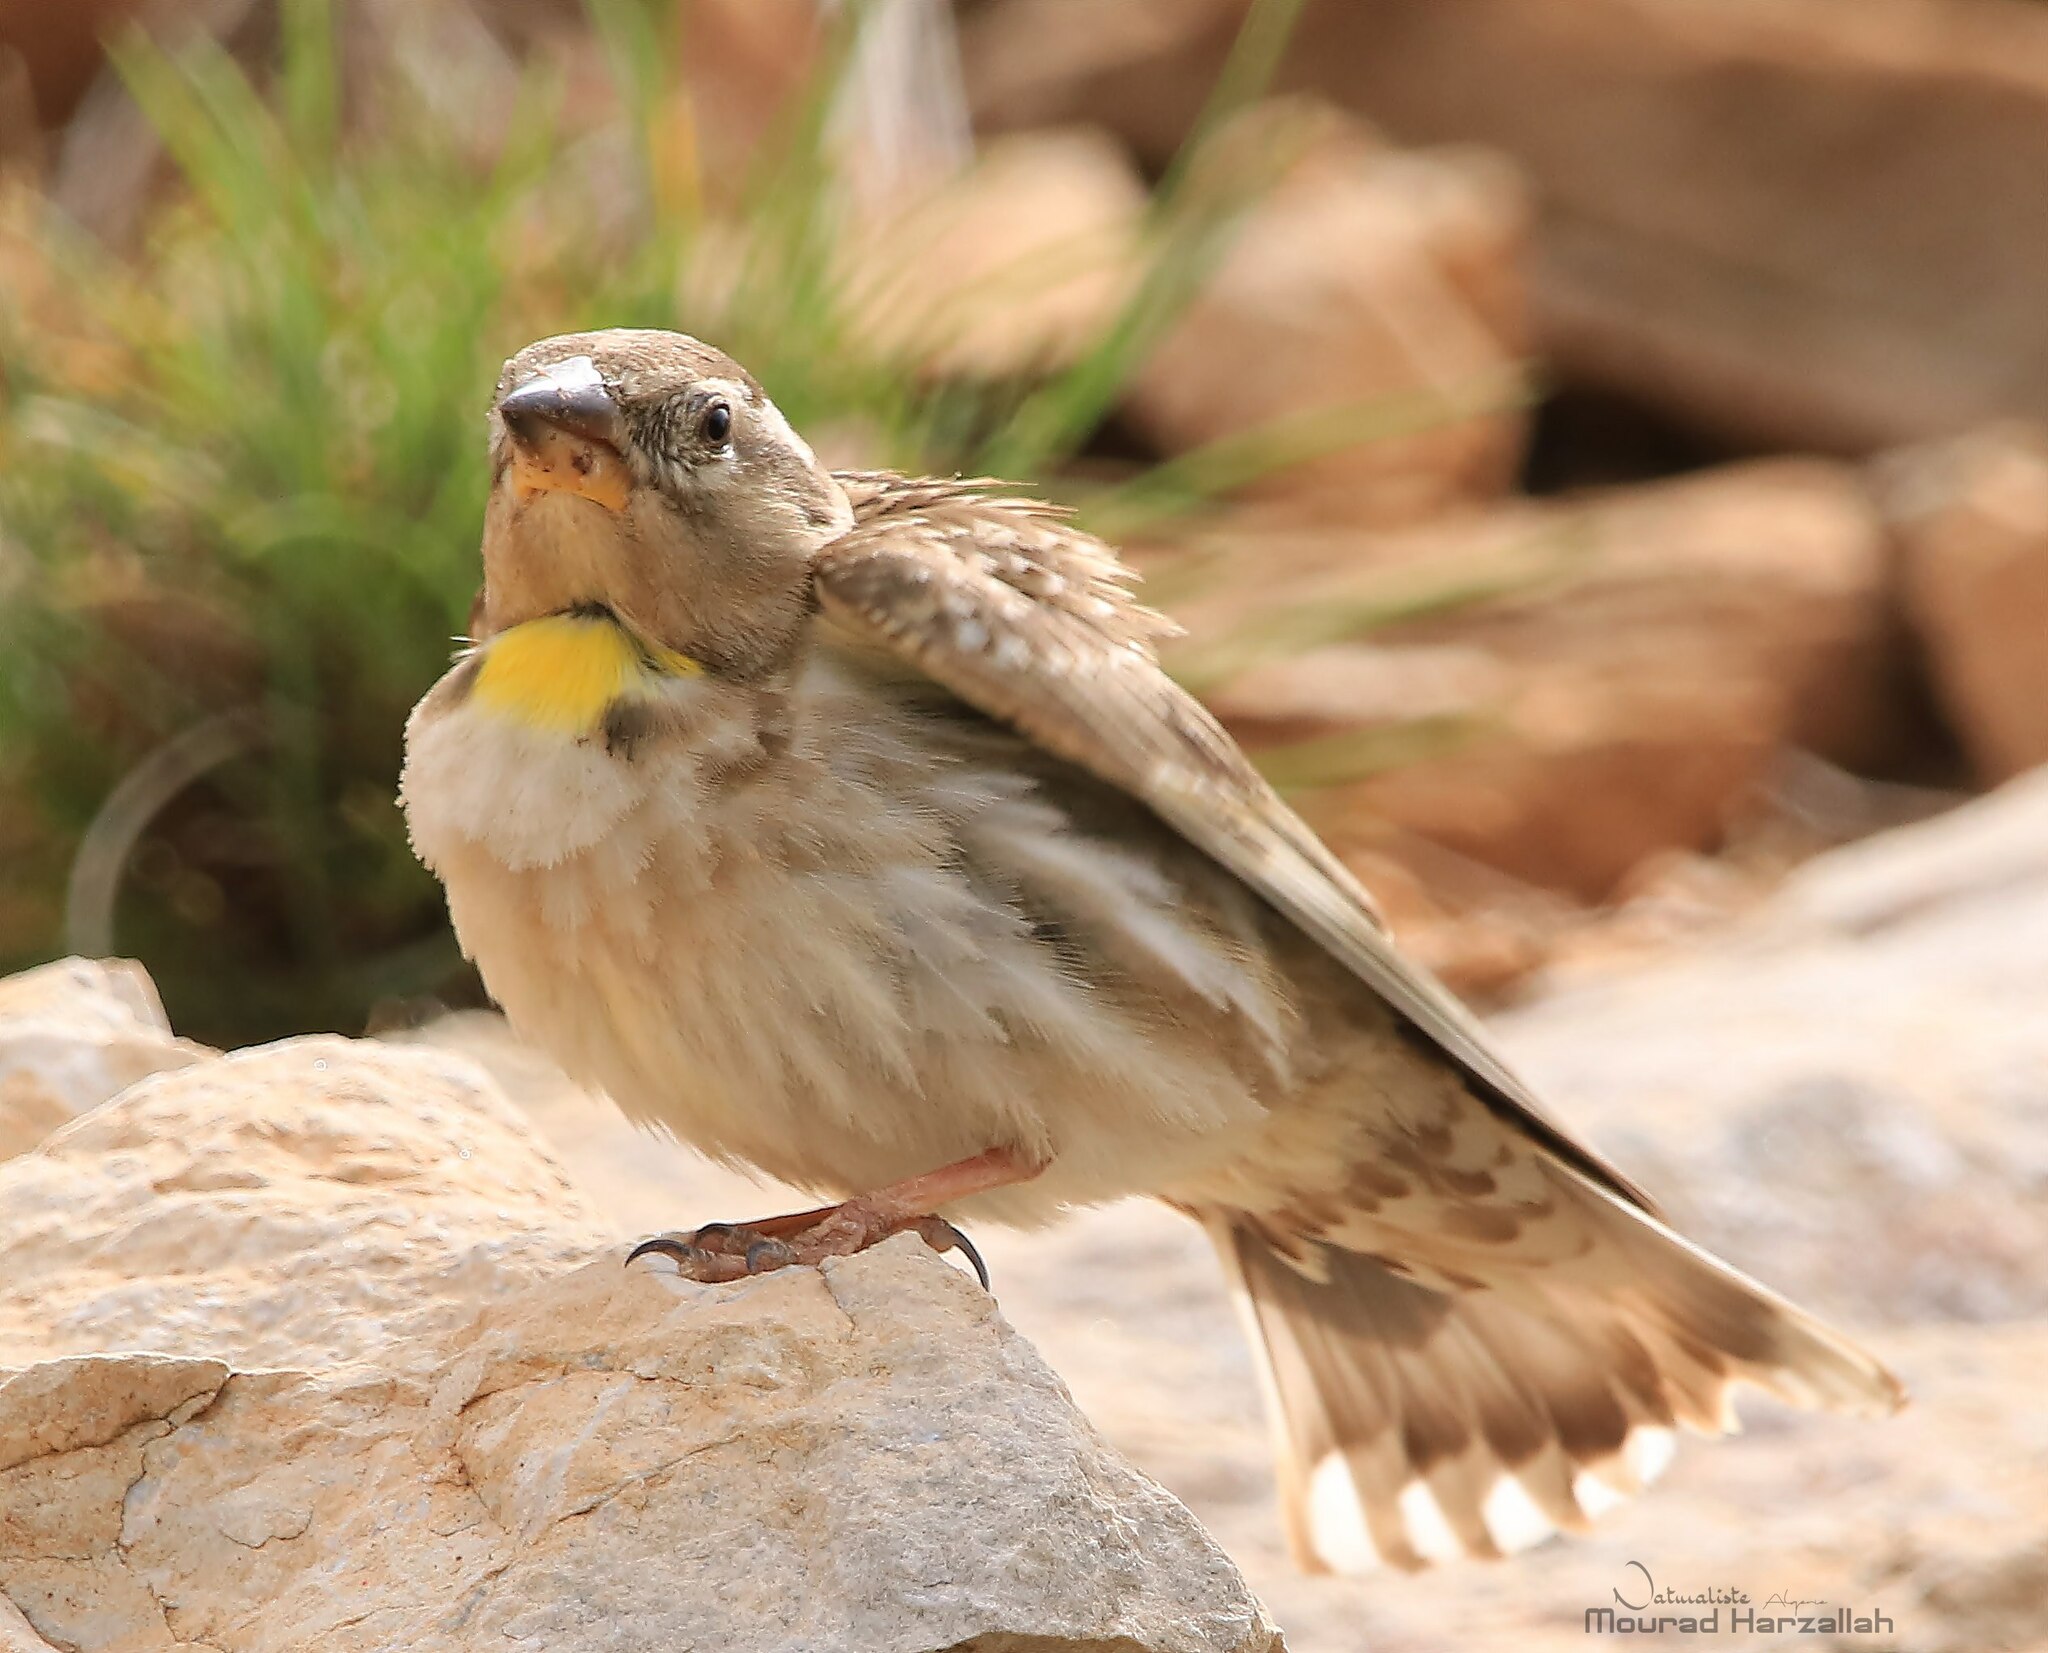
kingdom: Animalia
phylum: Chordata
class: Aves
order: Passeriformes
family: Passeridae
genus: Petronia
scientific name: Petronia petronia
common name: Rock sparrow
